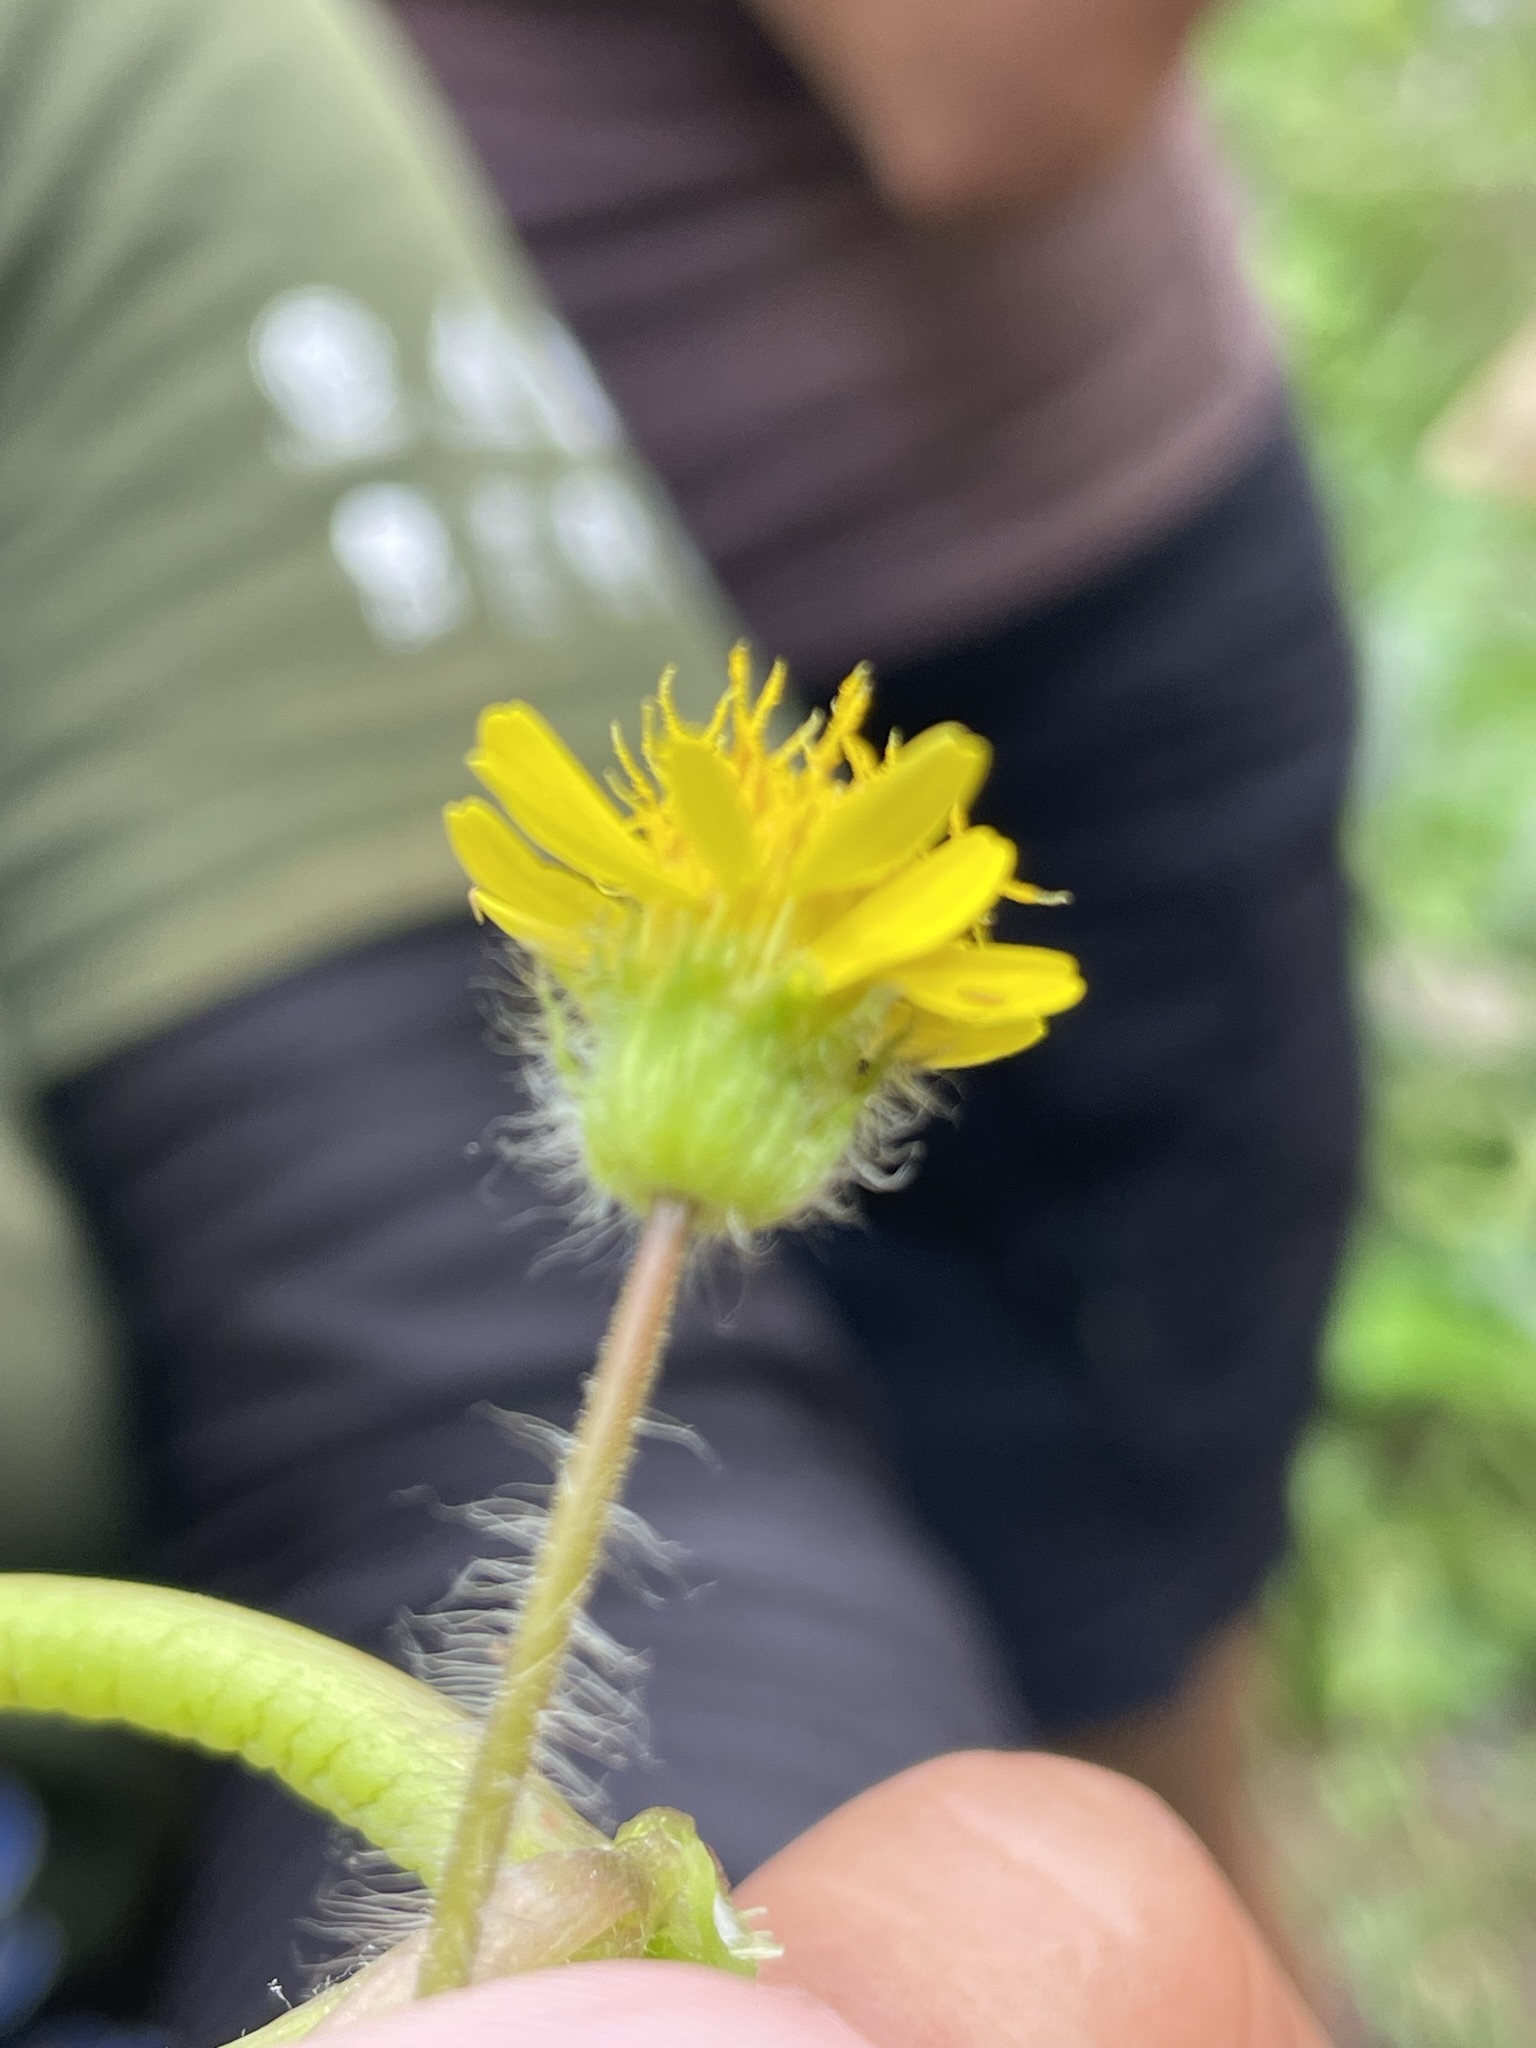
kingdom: Plantae
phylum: Tracheophyta
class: Magnoliopsida
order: Asterales
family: Asteraceae
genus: Laphamia
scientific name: Laphamia lobata
